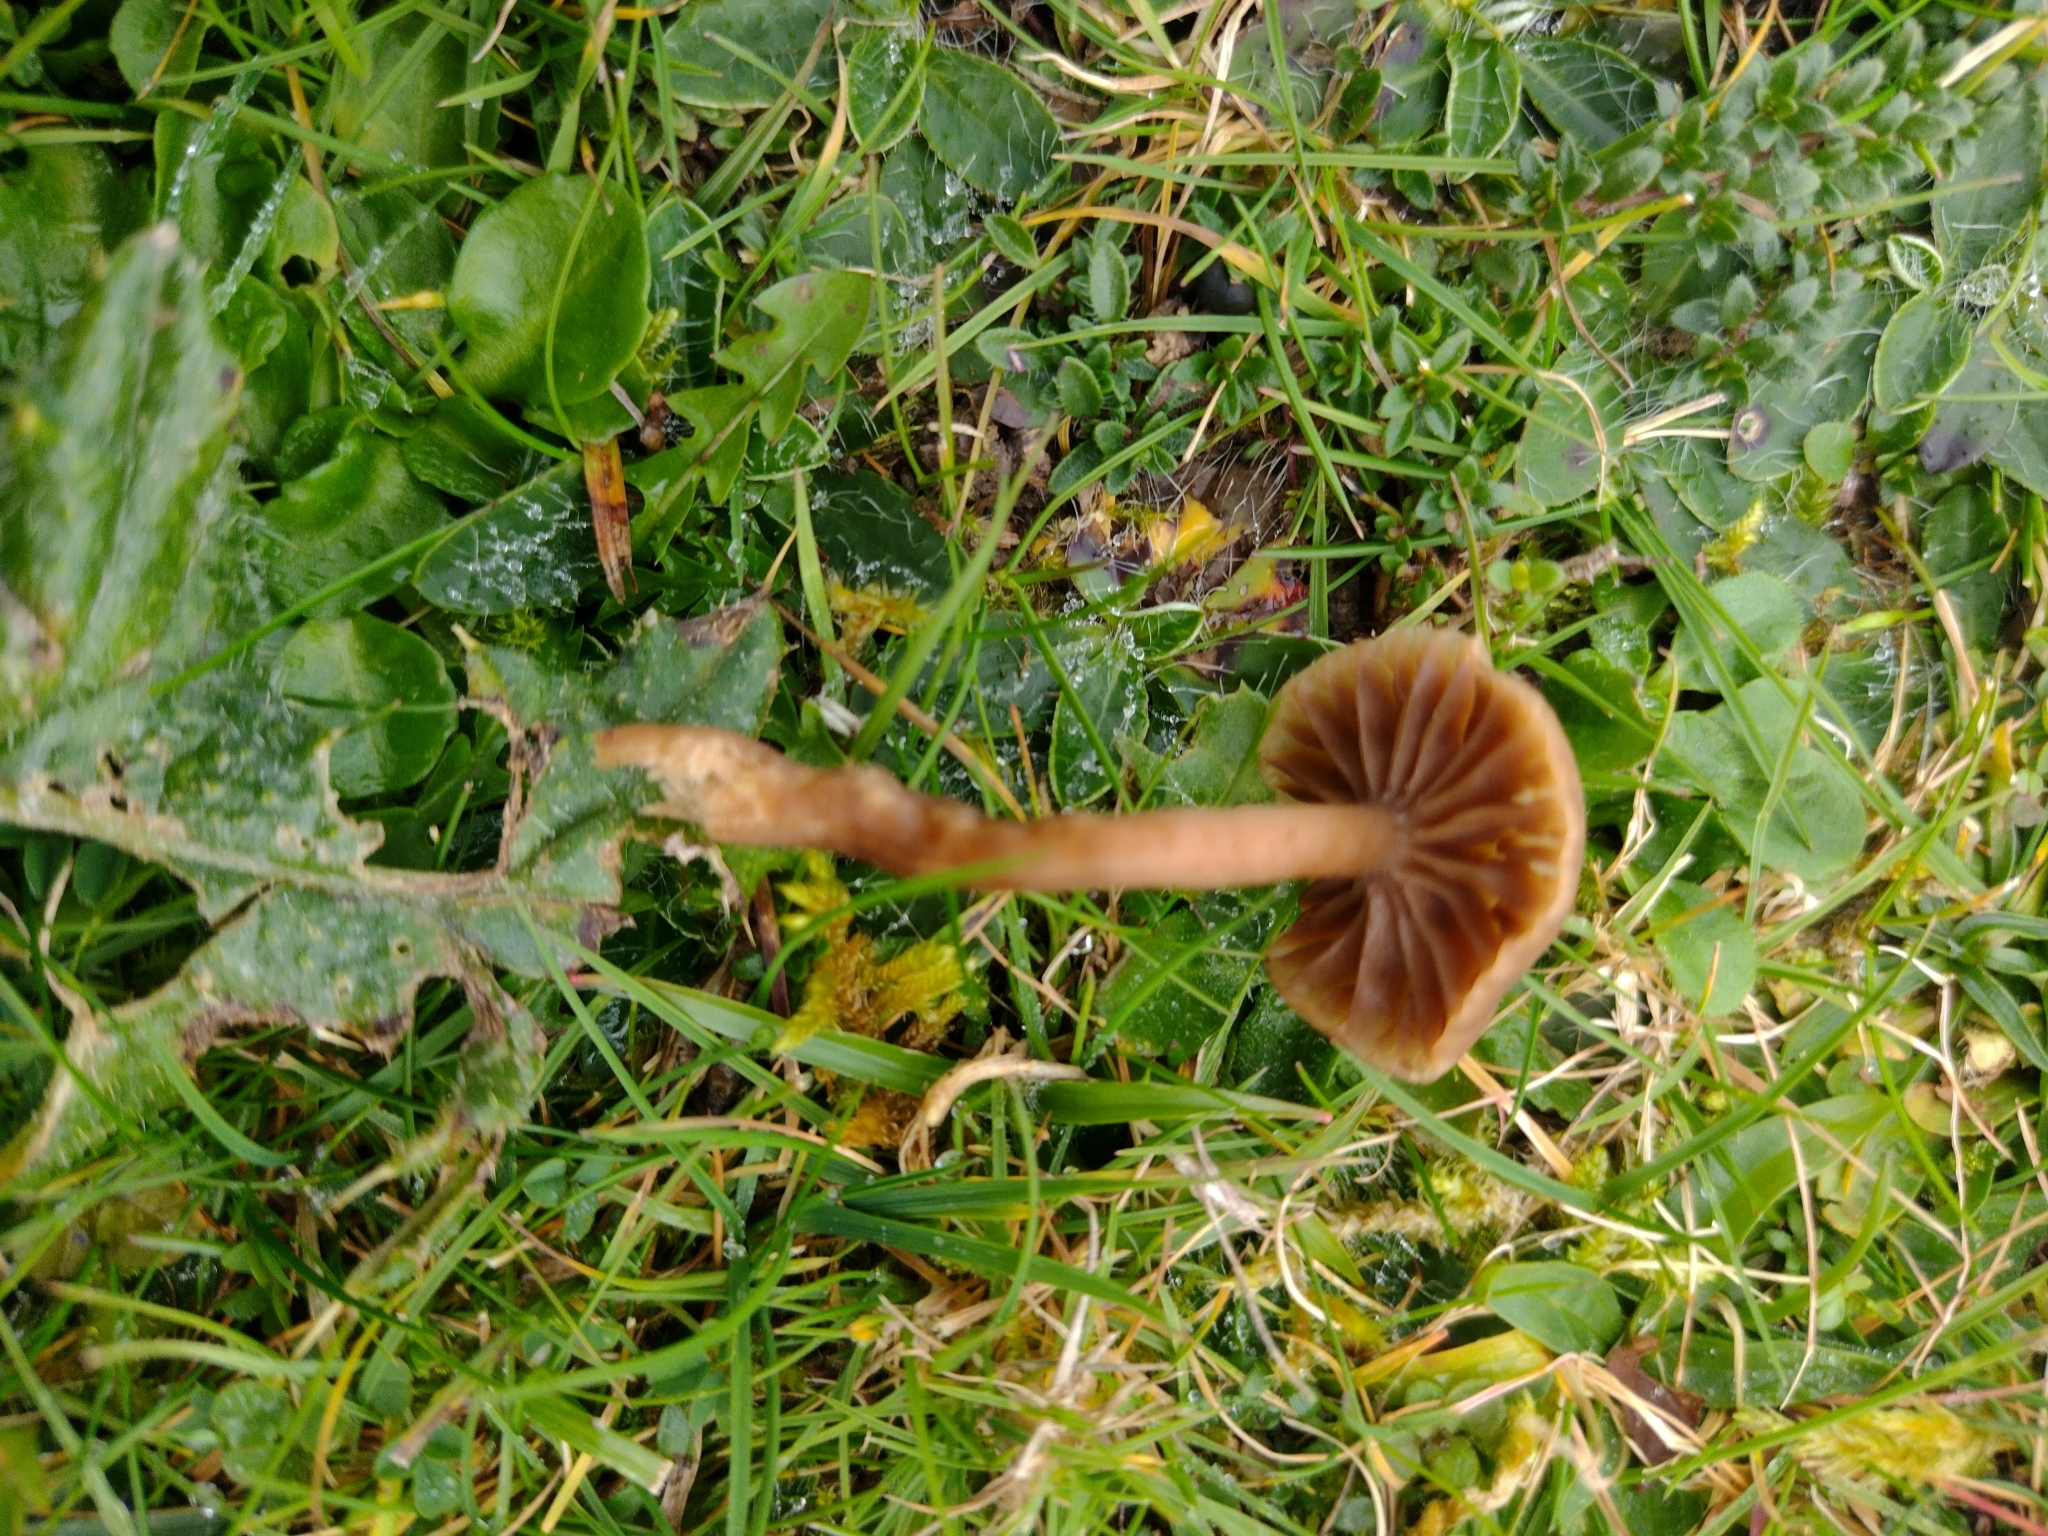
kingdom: Fungi
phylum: Basidiomycota
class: Agaricomycetes
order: Agaricales
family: Clavariaceae
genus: Hodophilus
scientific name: Hodophilus subfoetens
